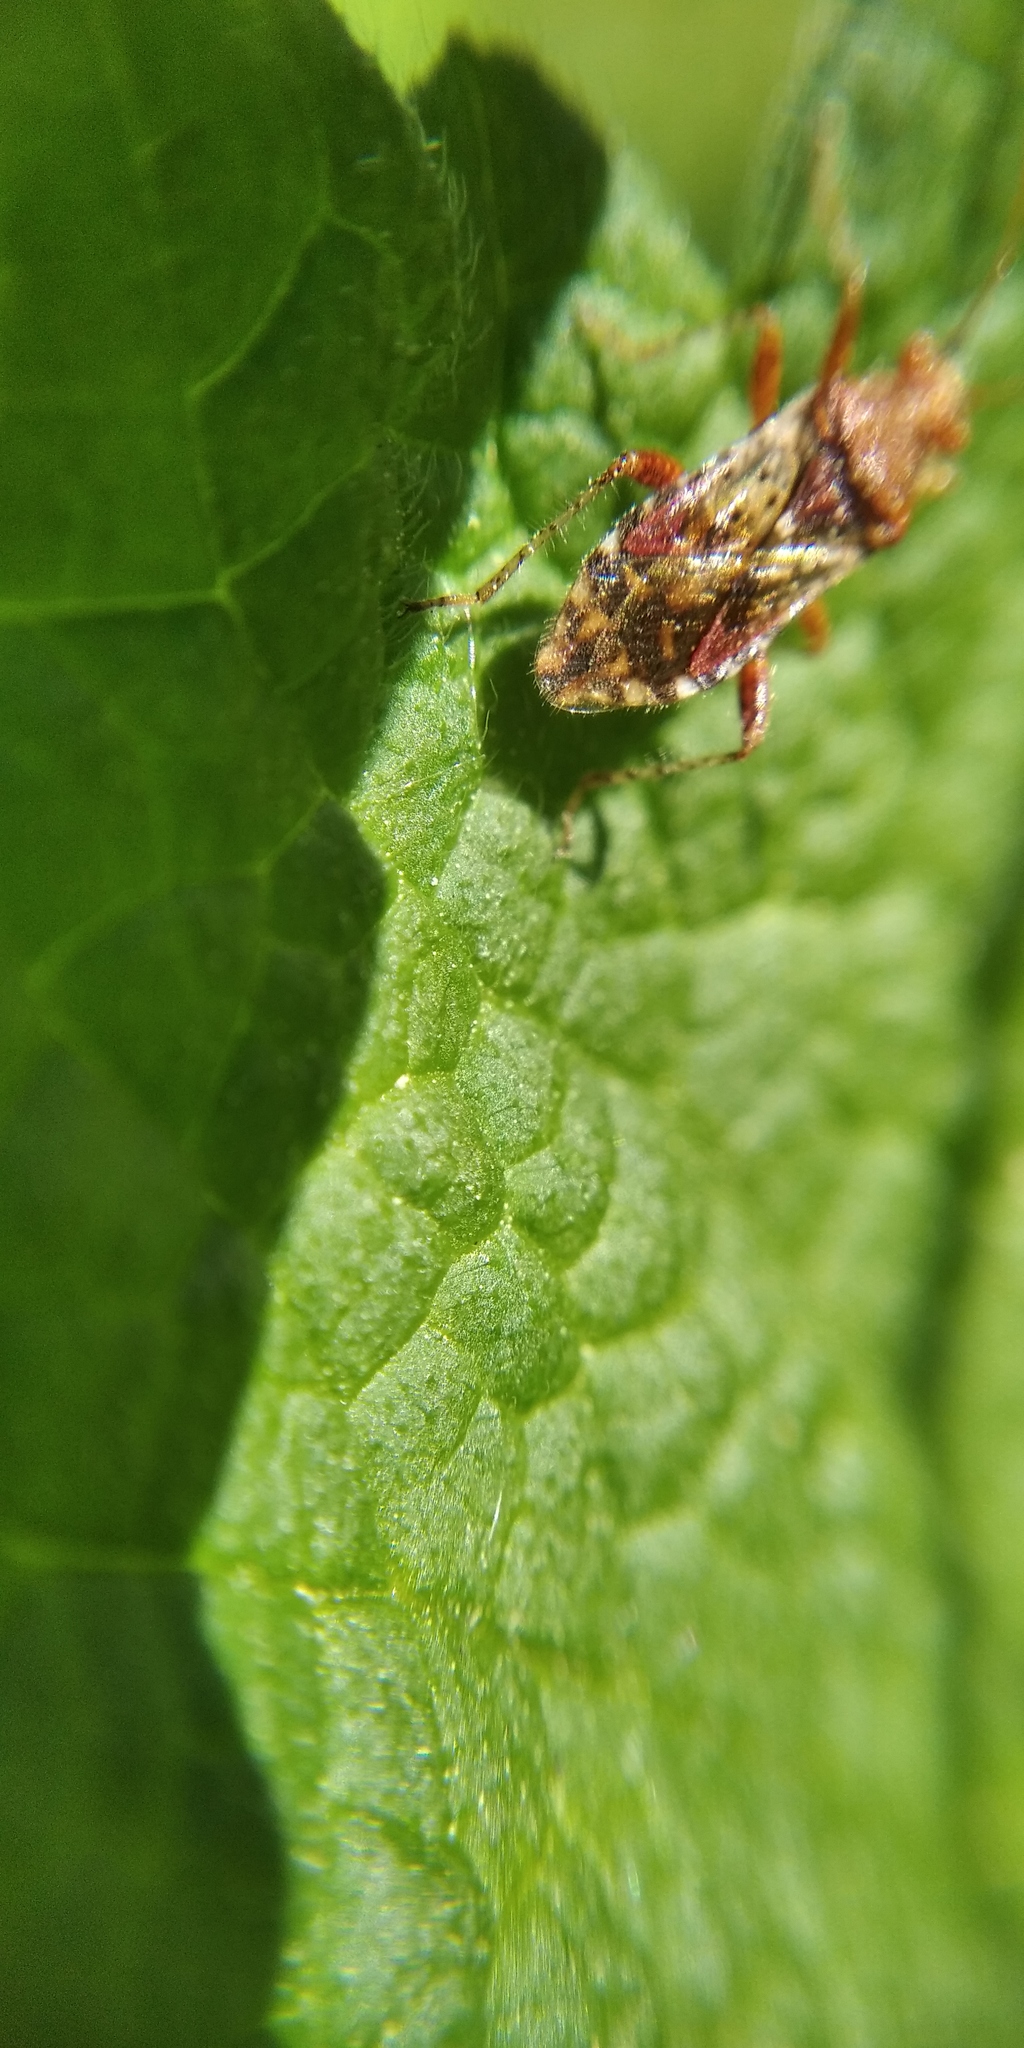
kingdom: Animalia
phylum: Arthropoda
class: Insecta
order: Hemiptera
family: Rhopalidae
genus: Rhopalus
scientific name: Rhopalus subrufus
